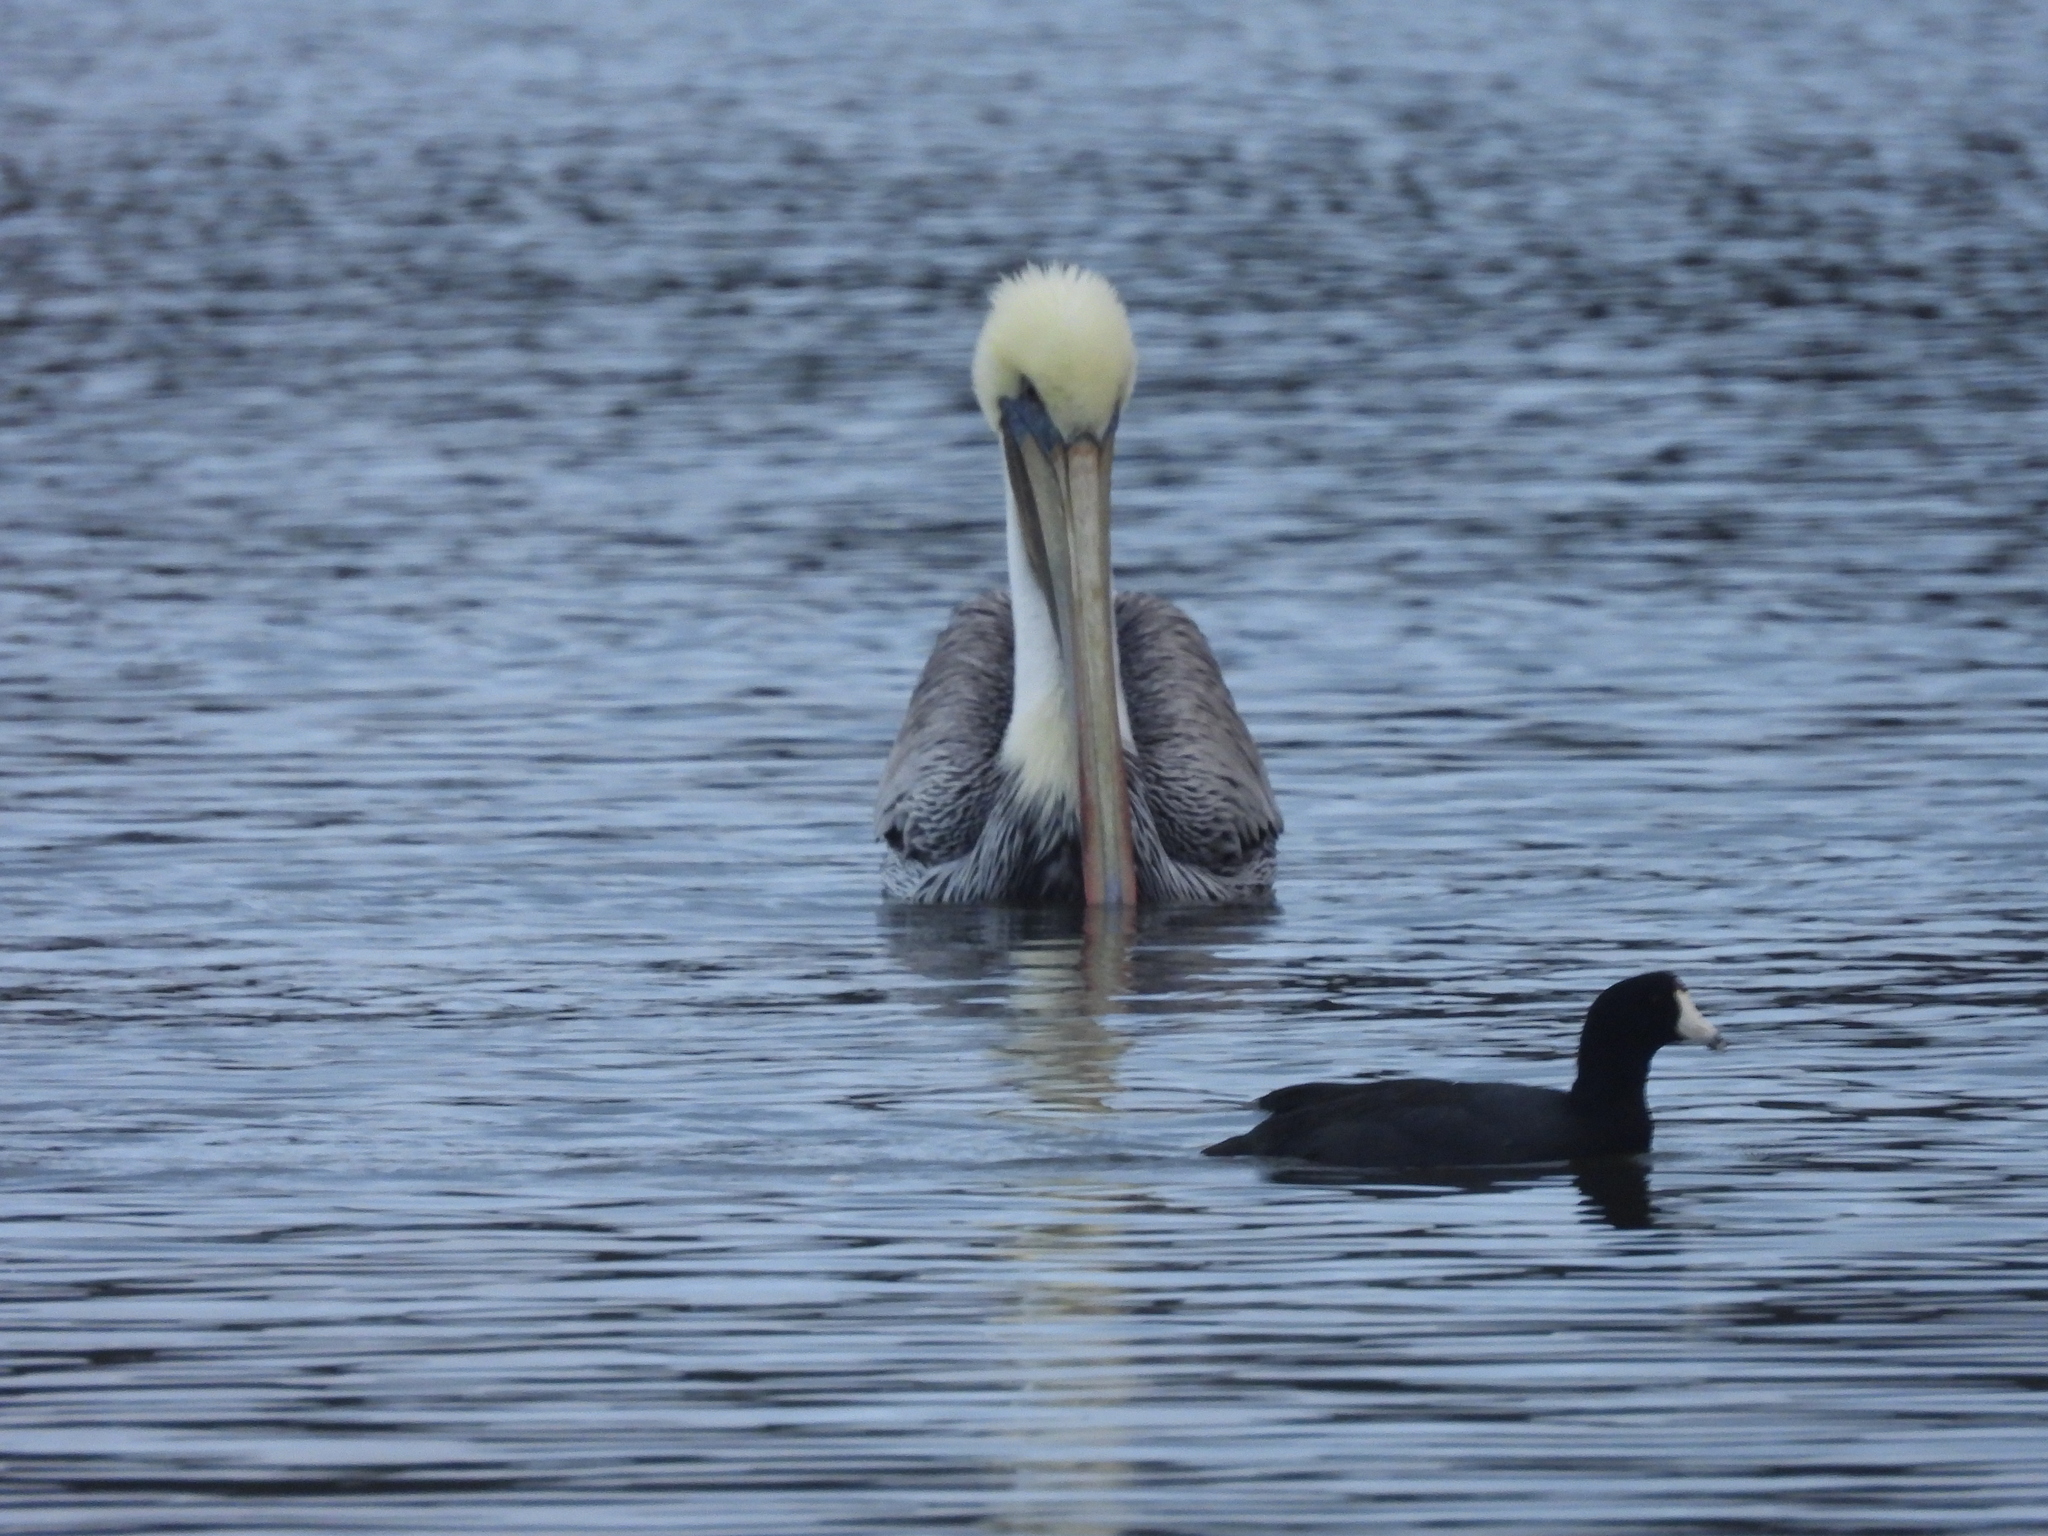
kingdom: Animalia
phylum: Chordata
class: Aves
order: Gruiformes
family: Rallidae
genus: Fulica
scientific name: Fulica americana
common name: American coot
